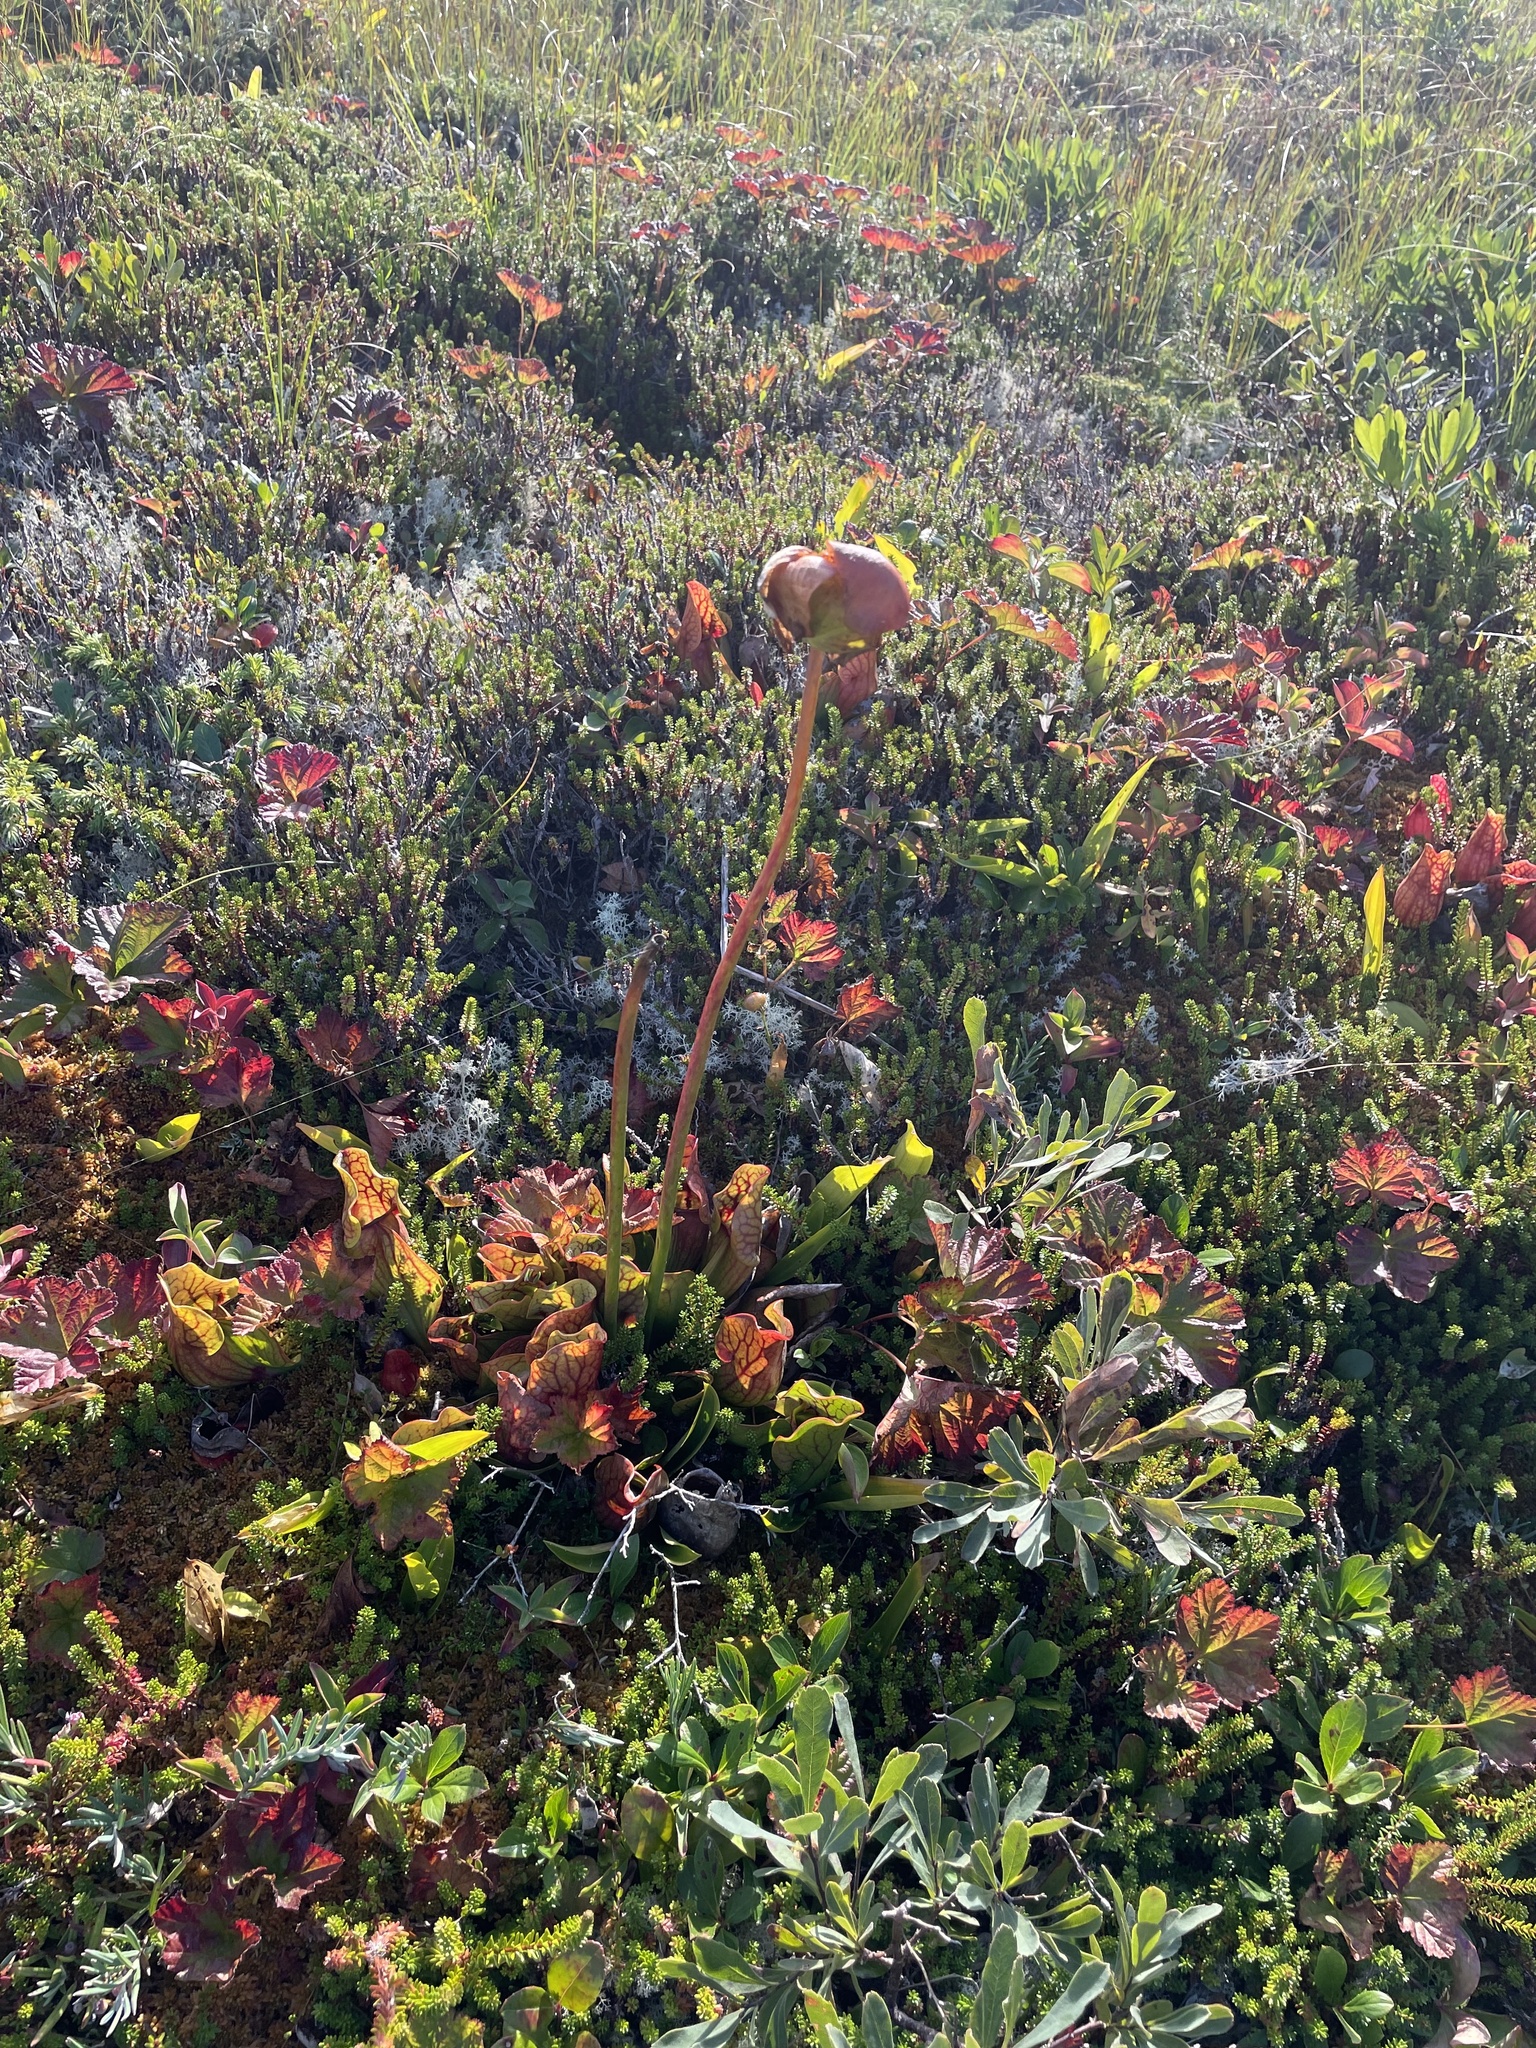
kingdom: Plantae
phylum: Tracheophyta
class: Magnoliopsida
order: Ericales
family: Sarraceniaceae
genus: Sarracenia
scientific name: Sarracenia purpurea
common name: Pitcherplant
